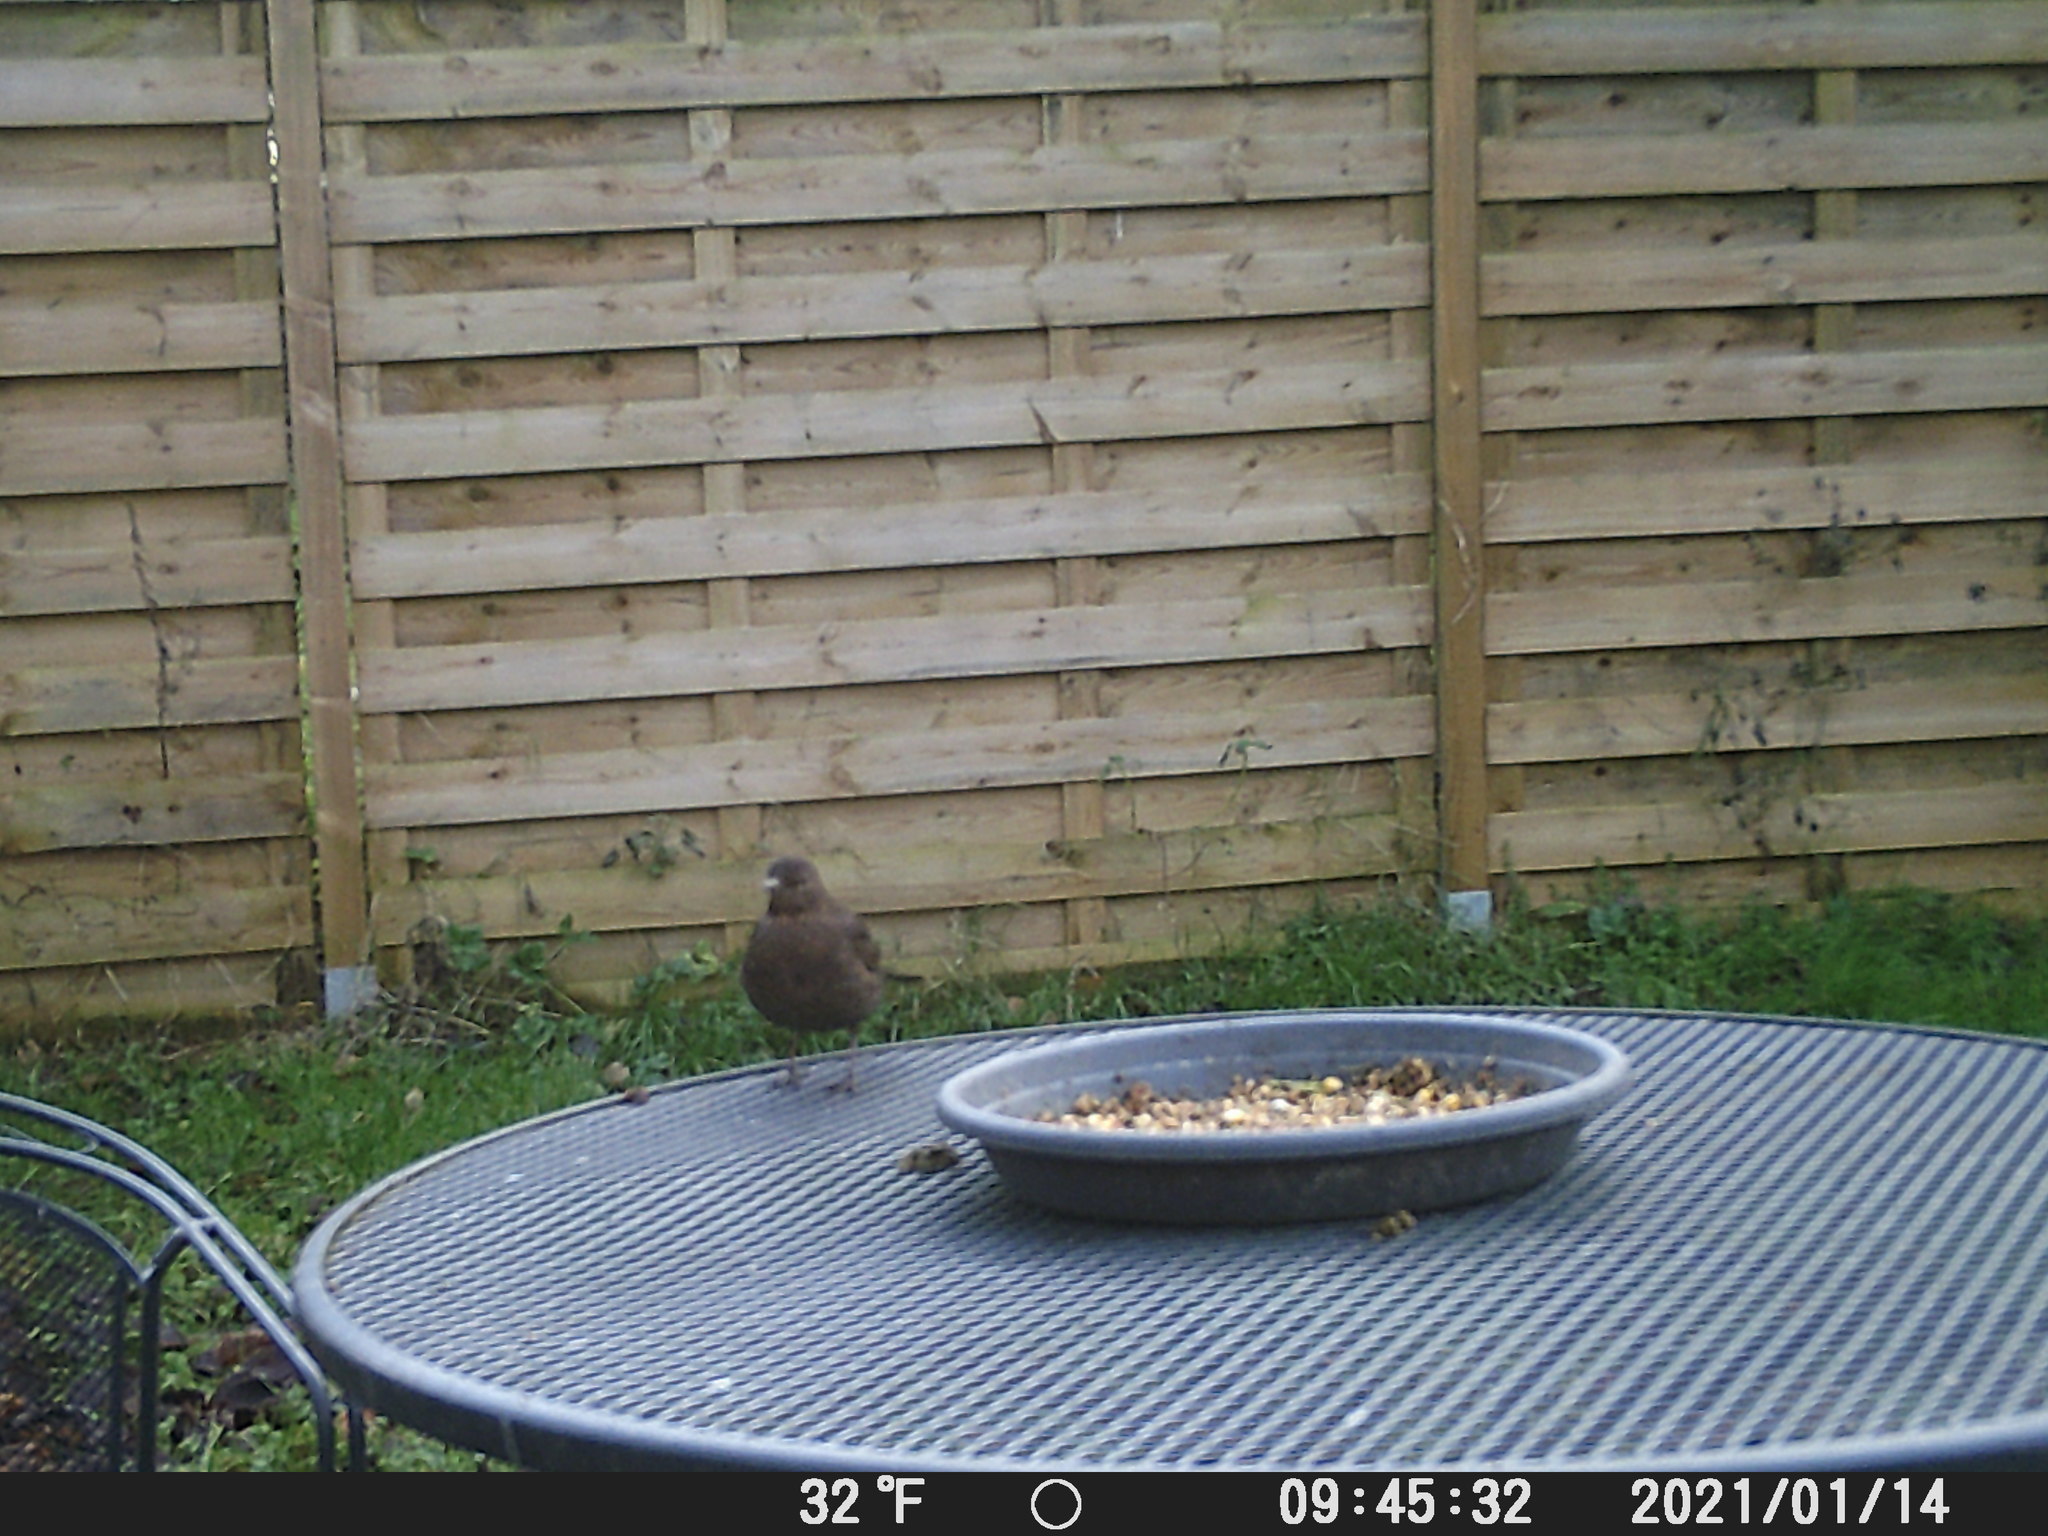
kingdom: Animalia
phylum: Chordata
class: Aves
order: Passeriformes
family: Turdidae
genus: Turdus
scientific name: Turdus merula
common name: Common blackbird
